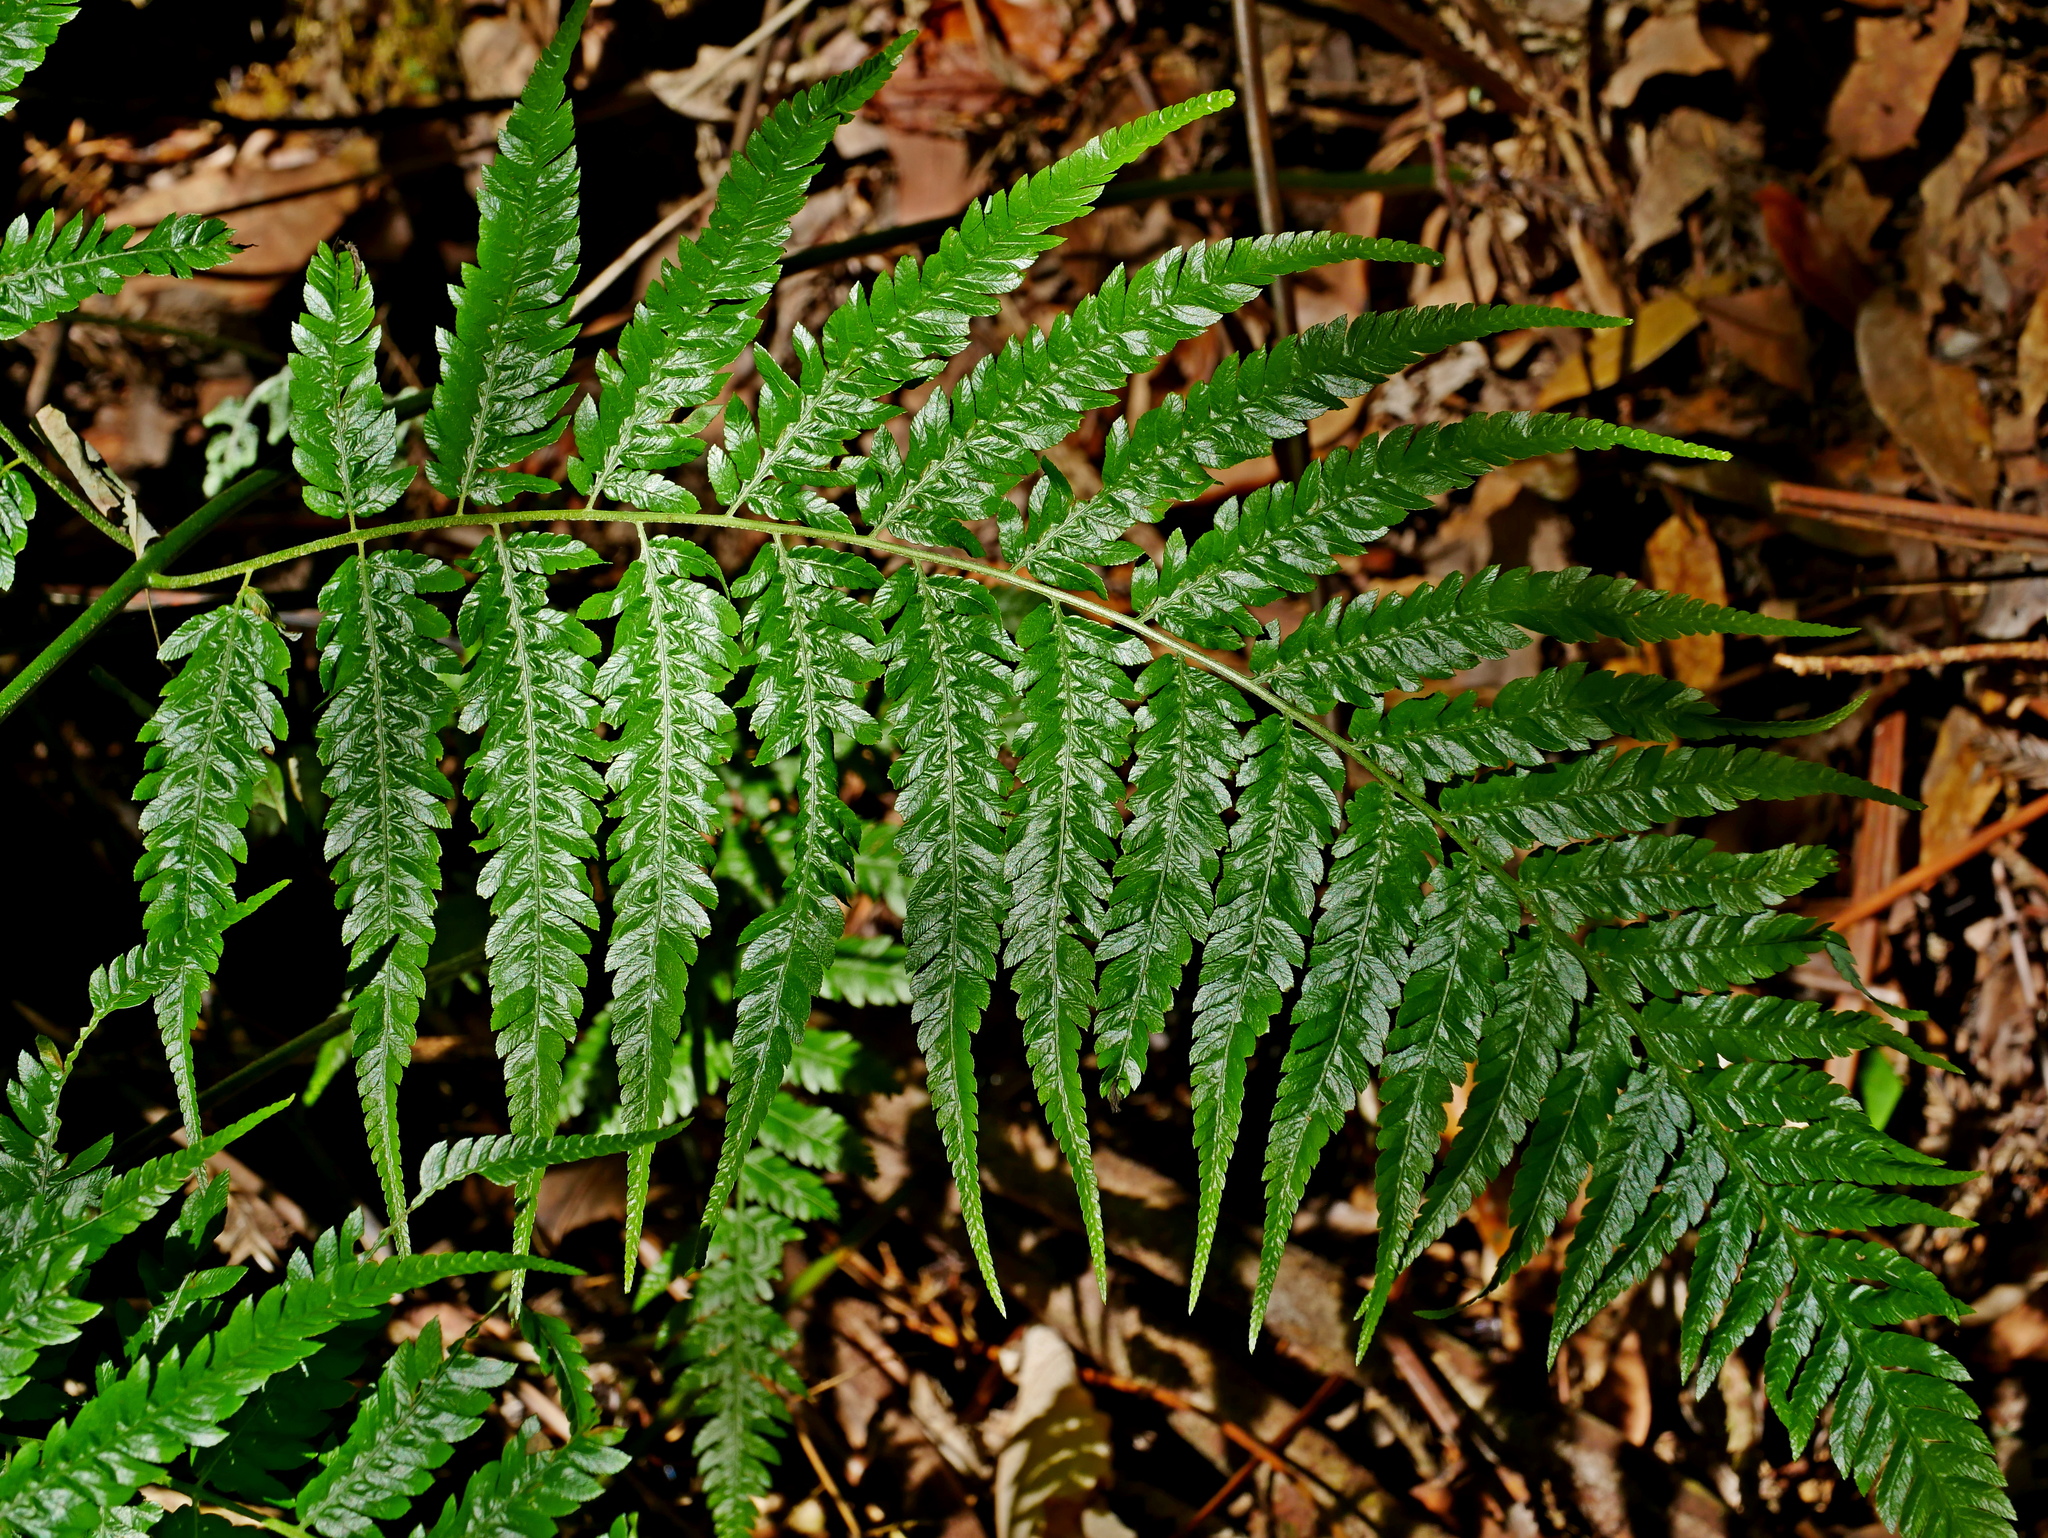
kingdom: Plantae
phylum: Tracheophyta
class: Polypodiopsida
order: Cyatheales
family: Cibotiaceae
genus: Cibotium
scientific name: Cibotium barometz
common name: Scythian-lamb
